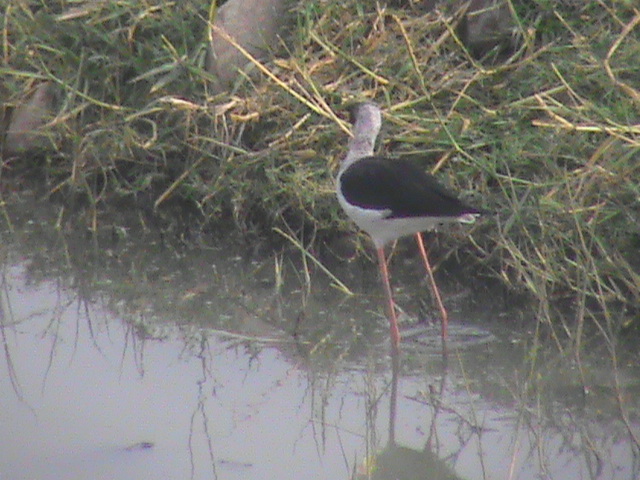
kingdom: Animalia
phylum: Chordata
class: Aves
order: Charadriiformes
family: Recurvirostridae
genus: Himantopus
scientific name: Himantopus himantopus
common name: Black-winged stilt
